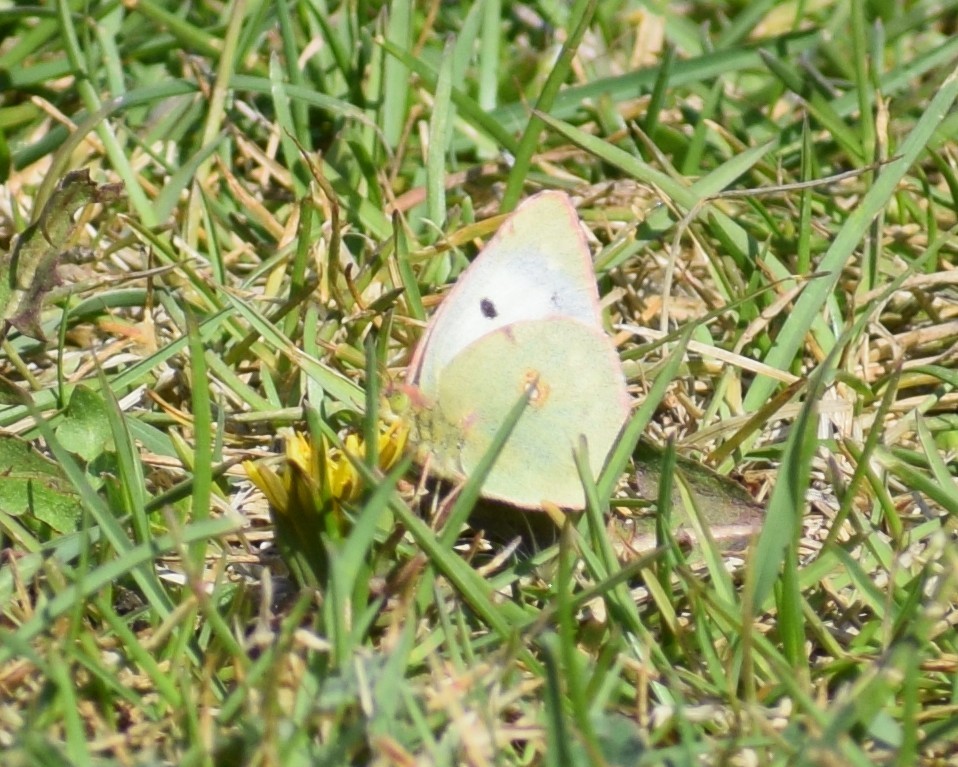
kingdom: Animalia
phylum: Arthropoda
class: Insecta
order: Lepidoptera
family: Pieridae
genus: Colias
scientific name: Colias
